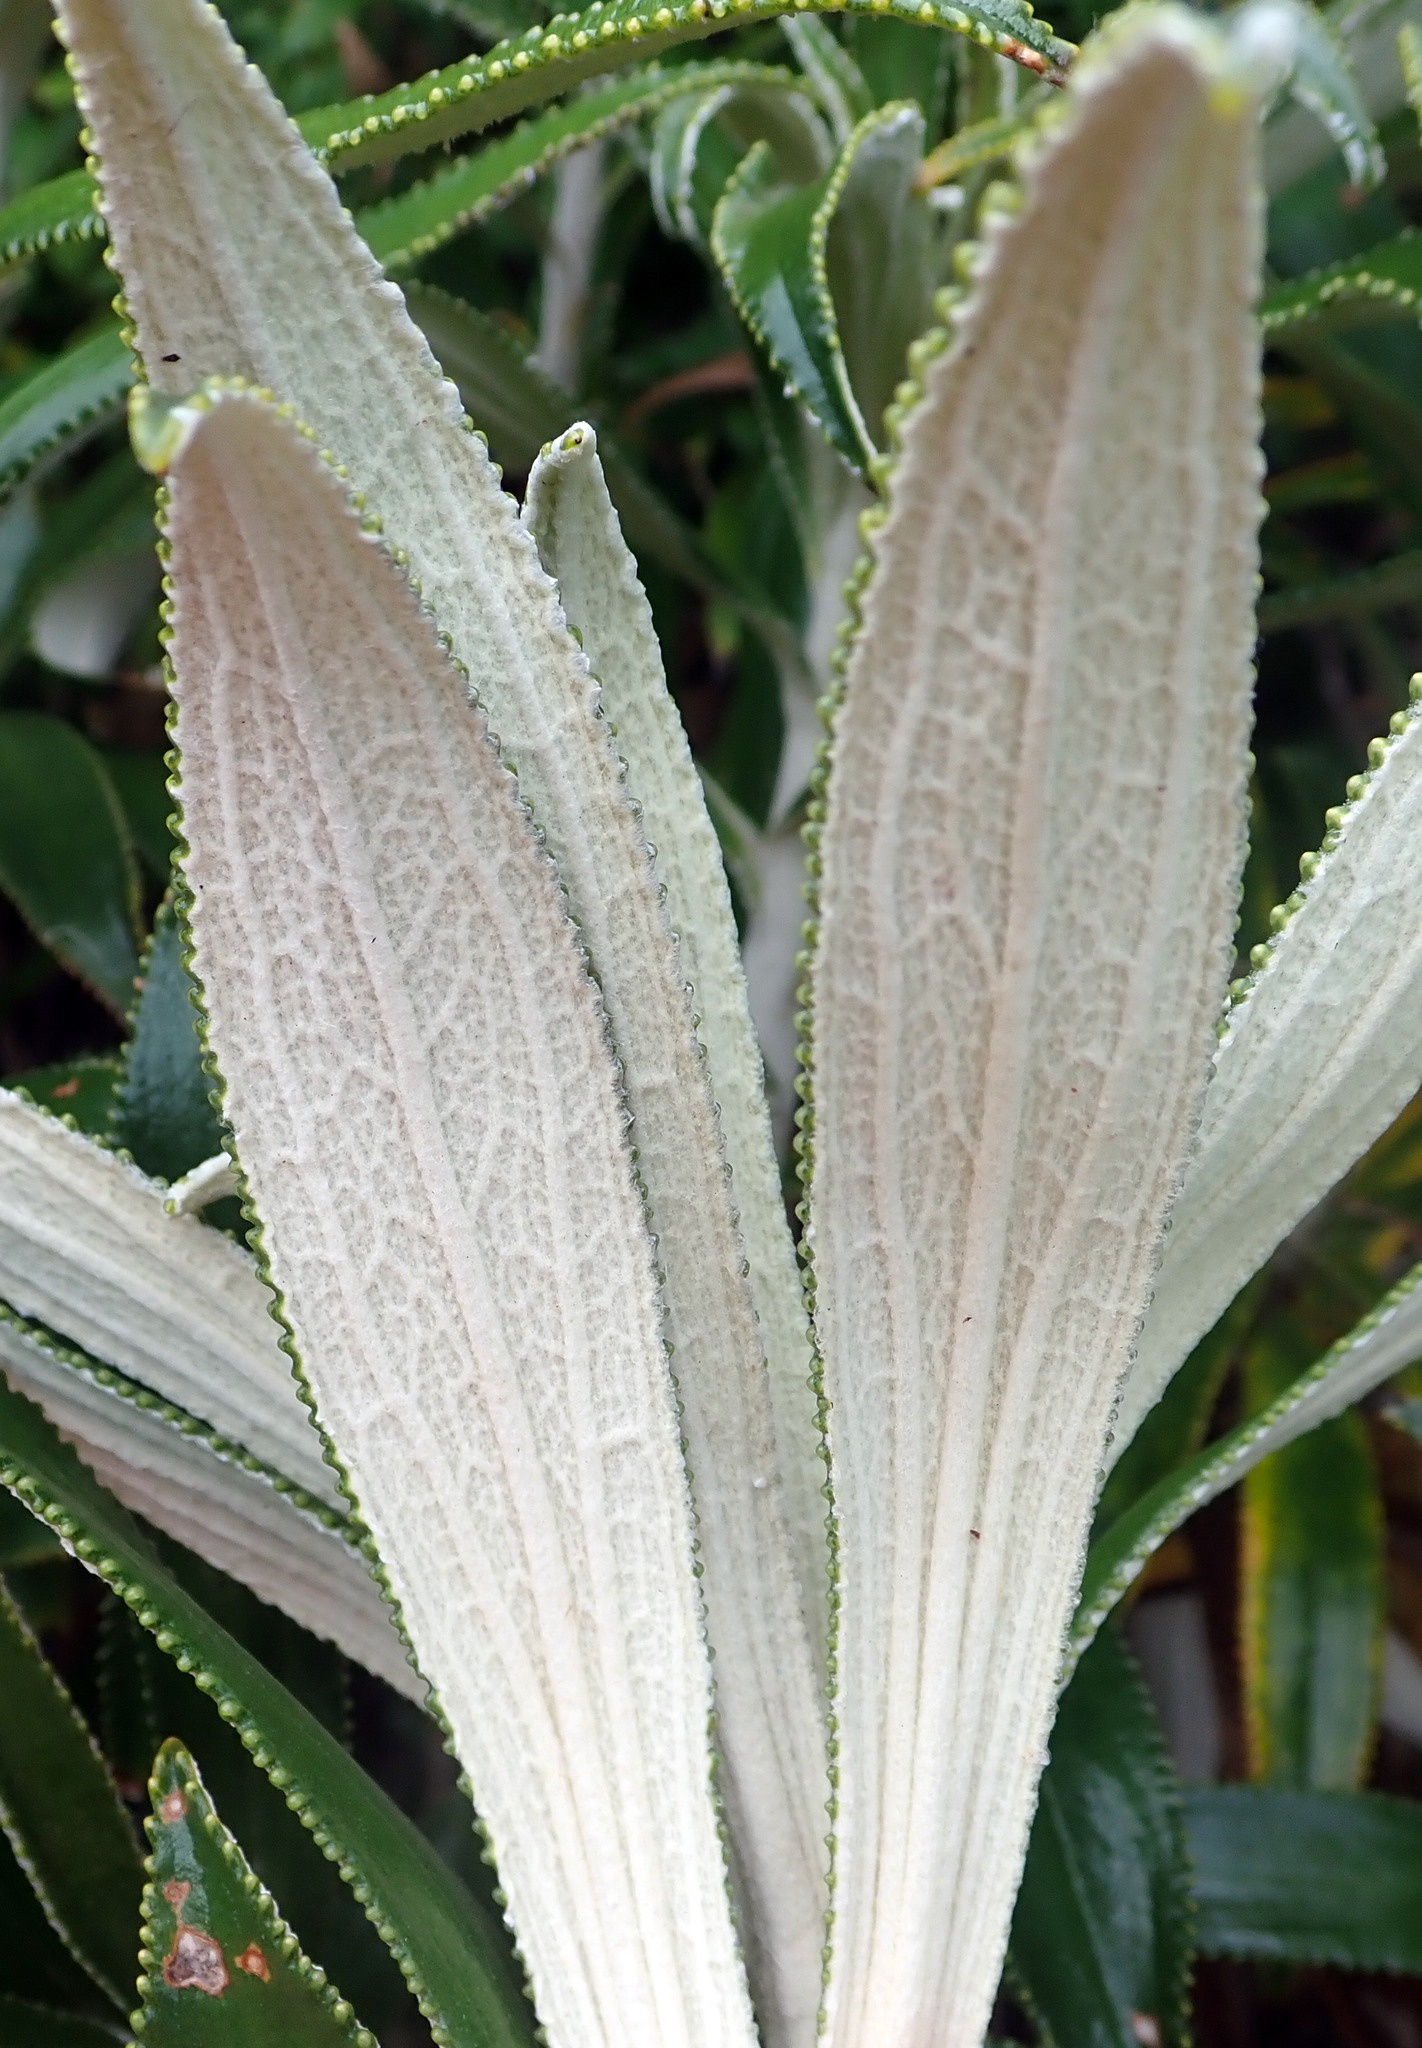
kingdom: Plantae
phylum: Tracheophyta
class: Magnoliopsida
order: Asterales
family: Asteraceae
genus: Macrolearia
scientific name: Macrolearia angustifolia
